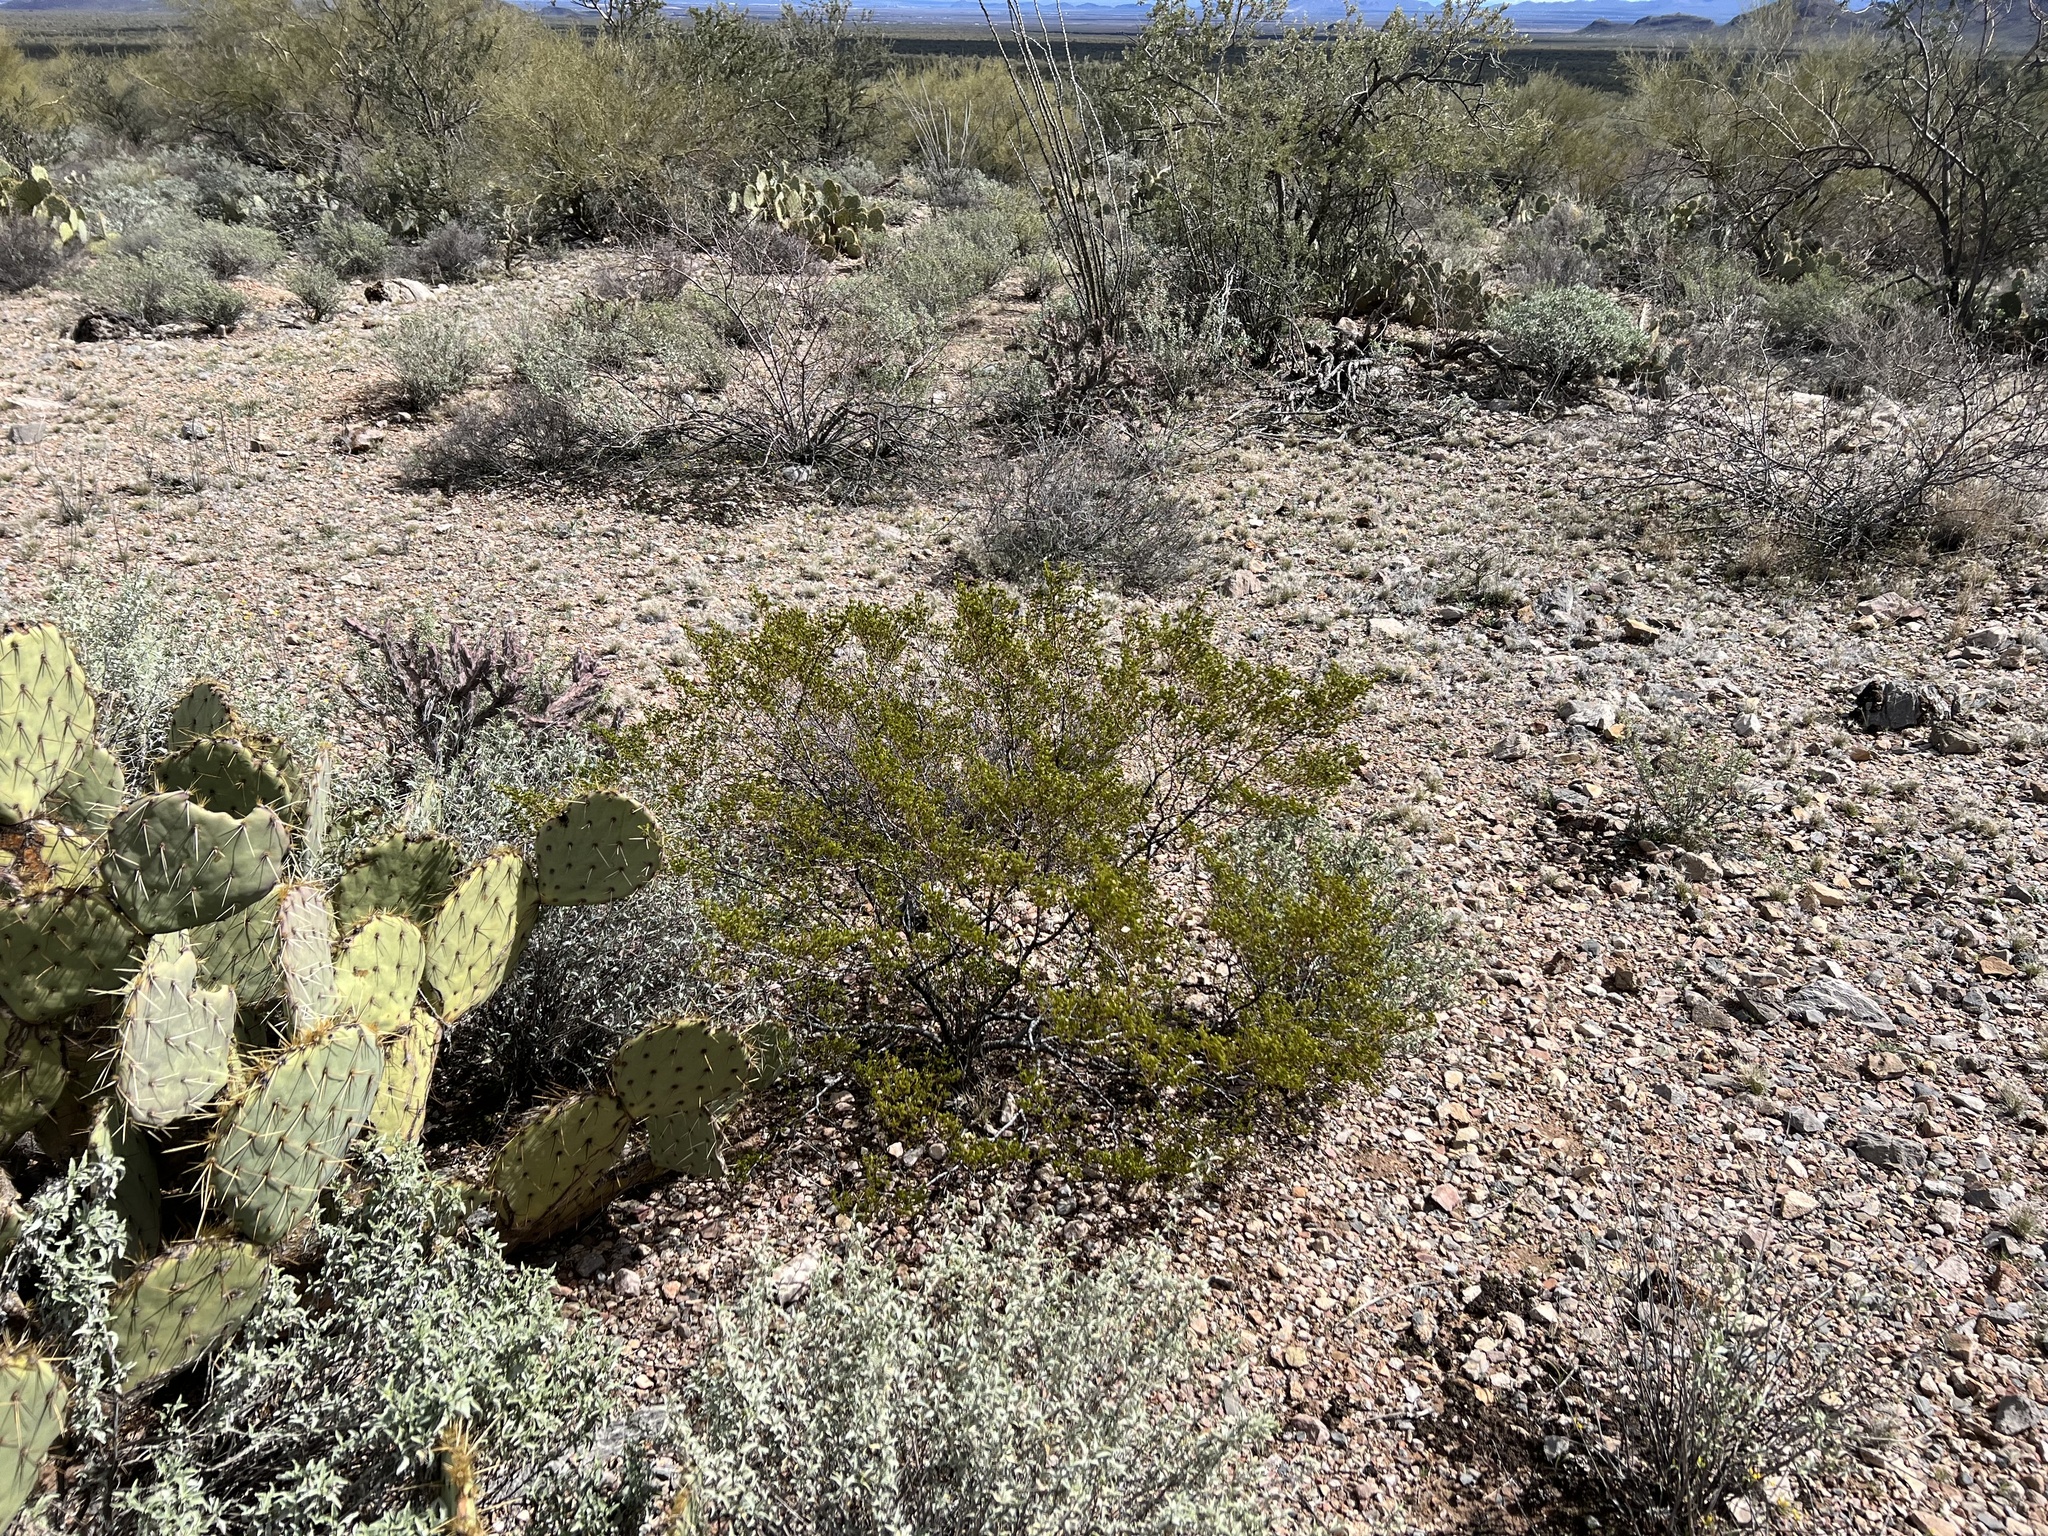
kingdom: Plantae
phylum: Tracheophyta
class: Magnoliopsida
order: Zygophyllales
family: Zygophyllaceae
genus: Larrea
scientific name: Larrea tridentata
